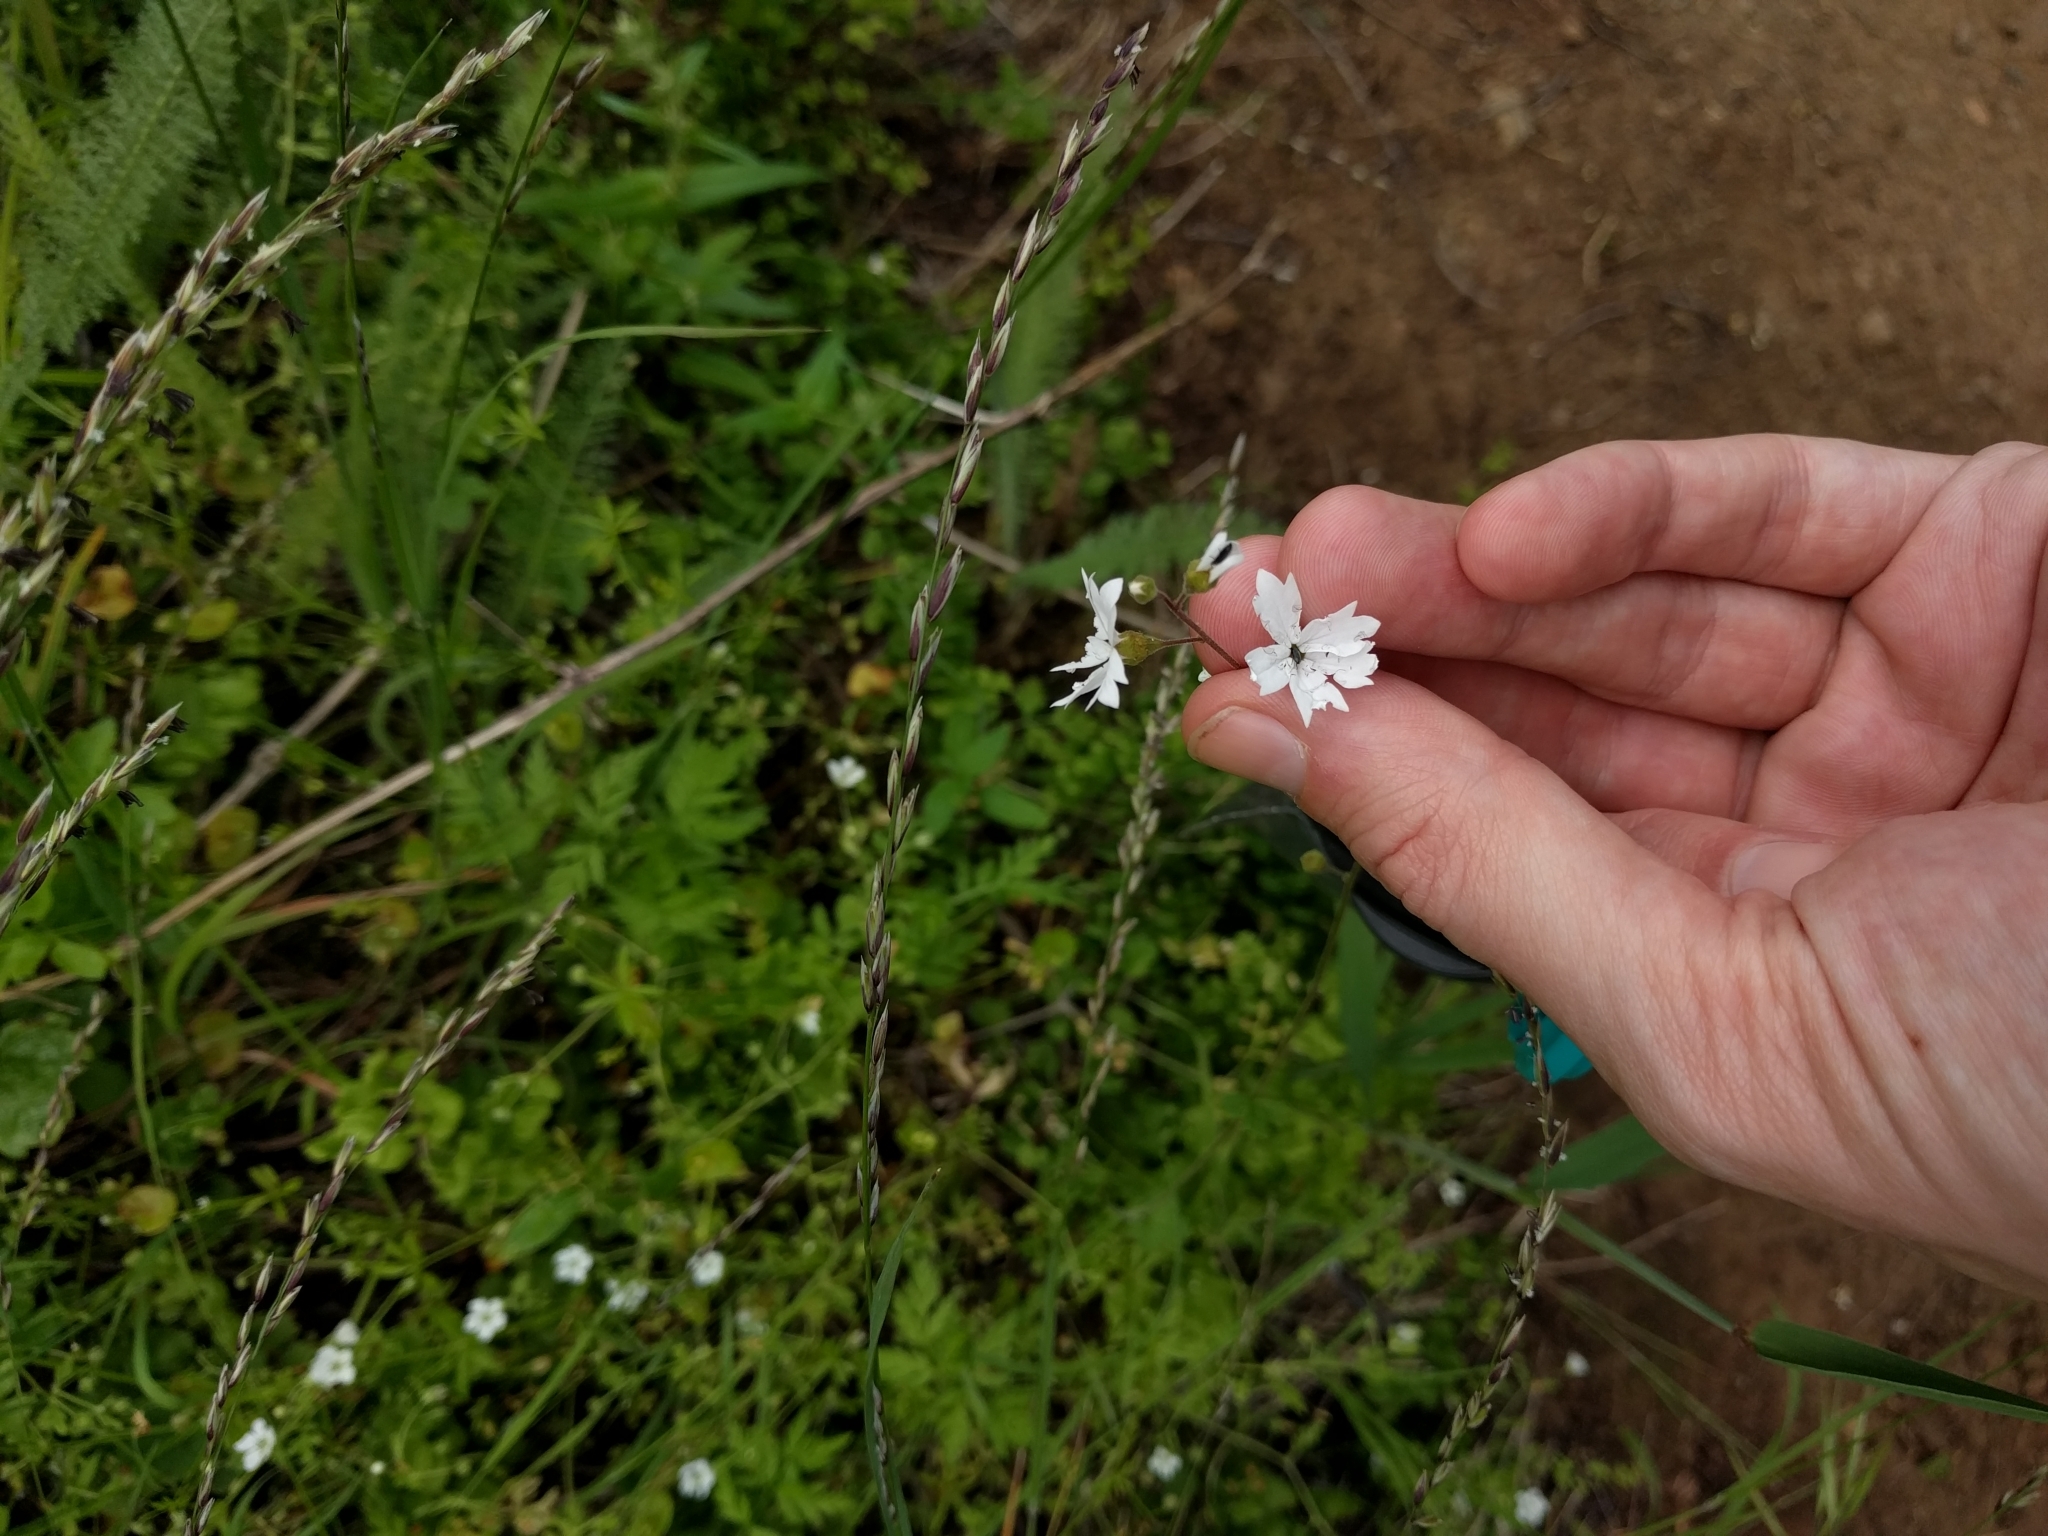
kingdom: Plantae
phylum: Tracheophyta
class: Magnoliopsida
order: Saxifragales
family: Saxifragaceae
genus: Lithophragma
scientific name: Lithophragma affine
